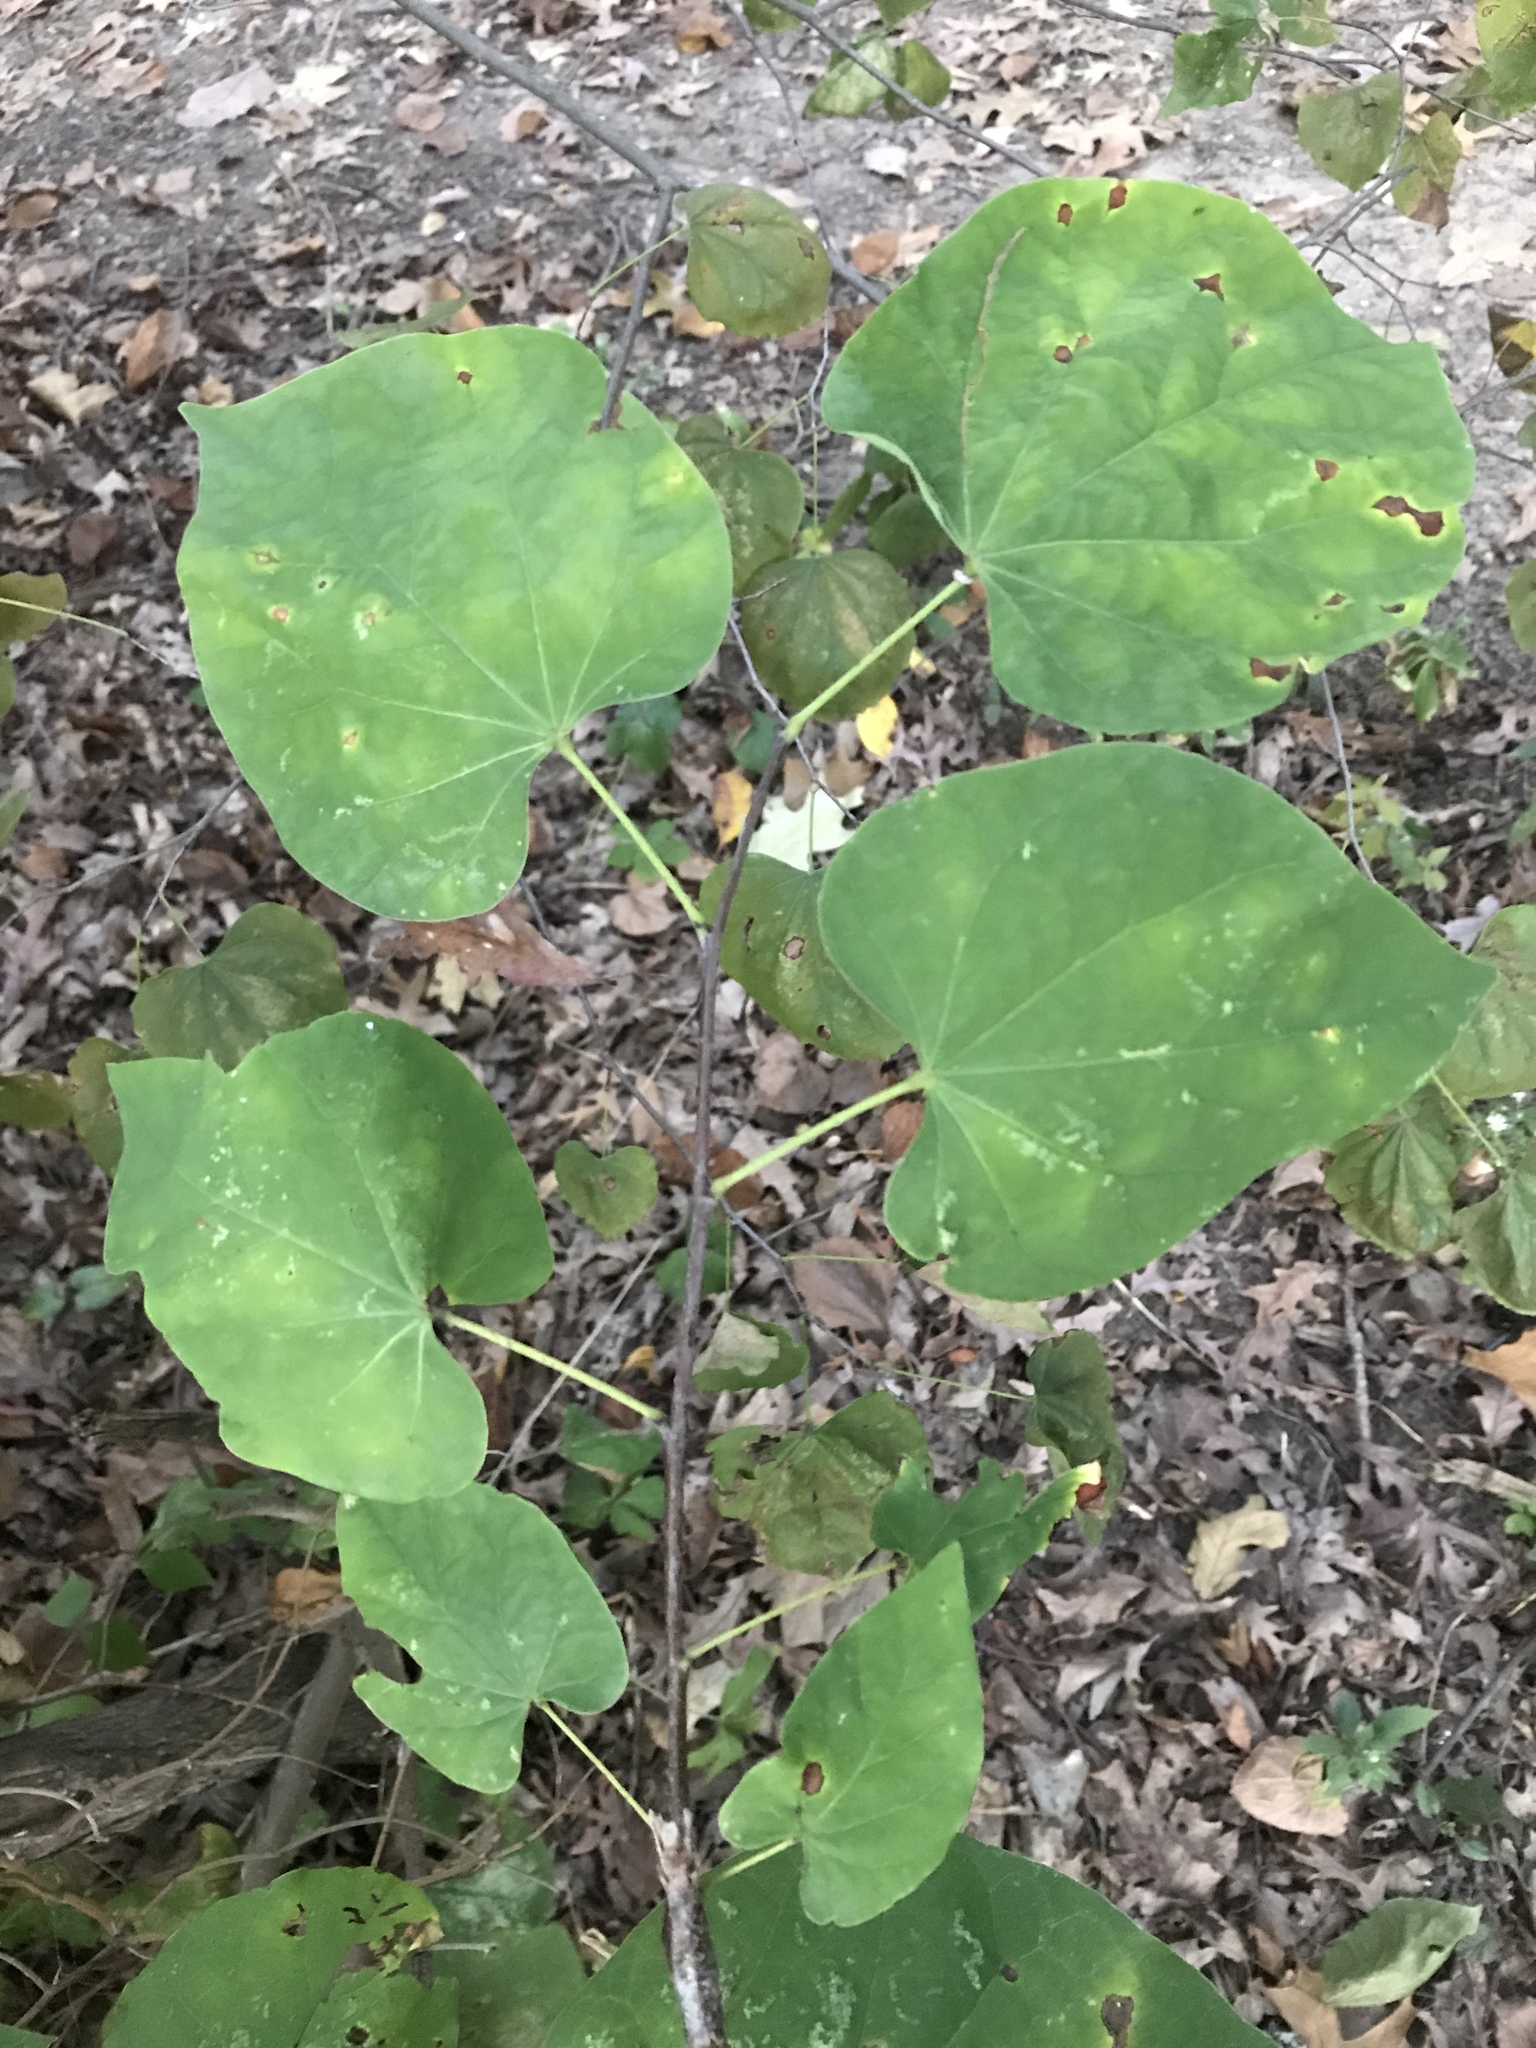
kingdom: Plantae
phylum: Tracheophyta
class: Magnoliopsida
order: Fabales
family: Fabaceae
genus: Cercis
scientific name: Cercis canadensis
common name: Eastern redbud
